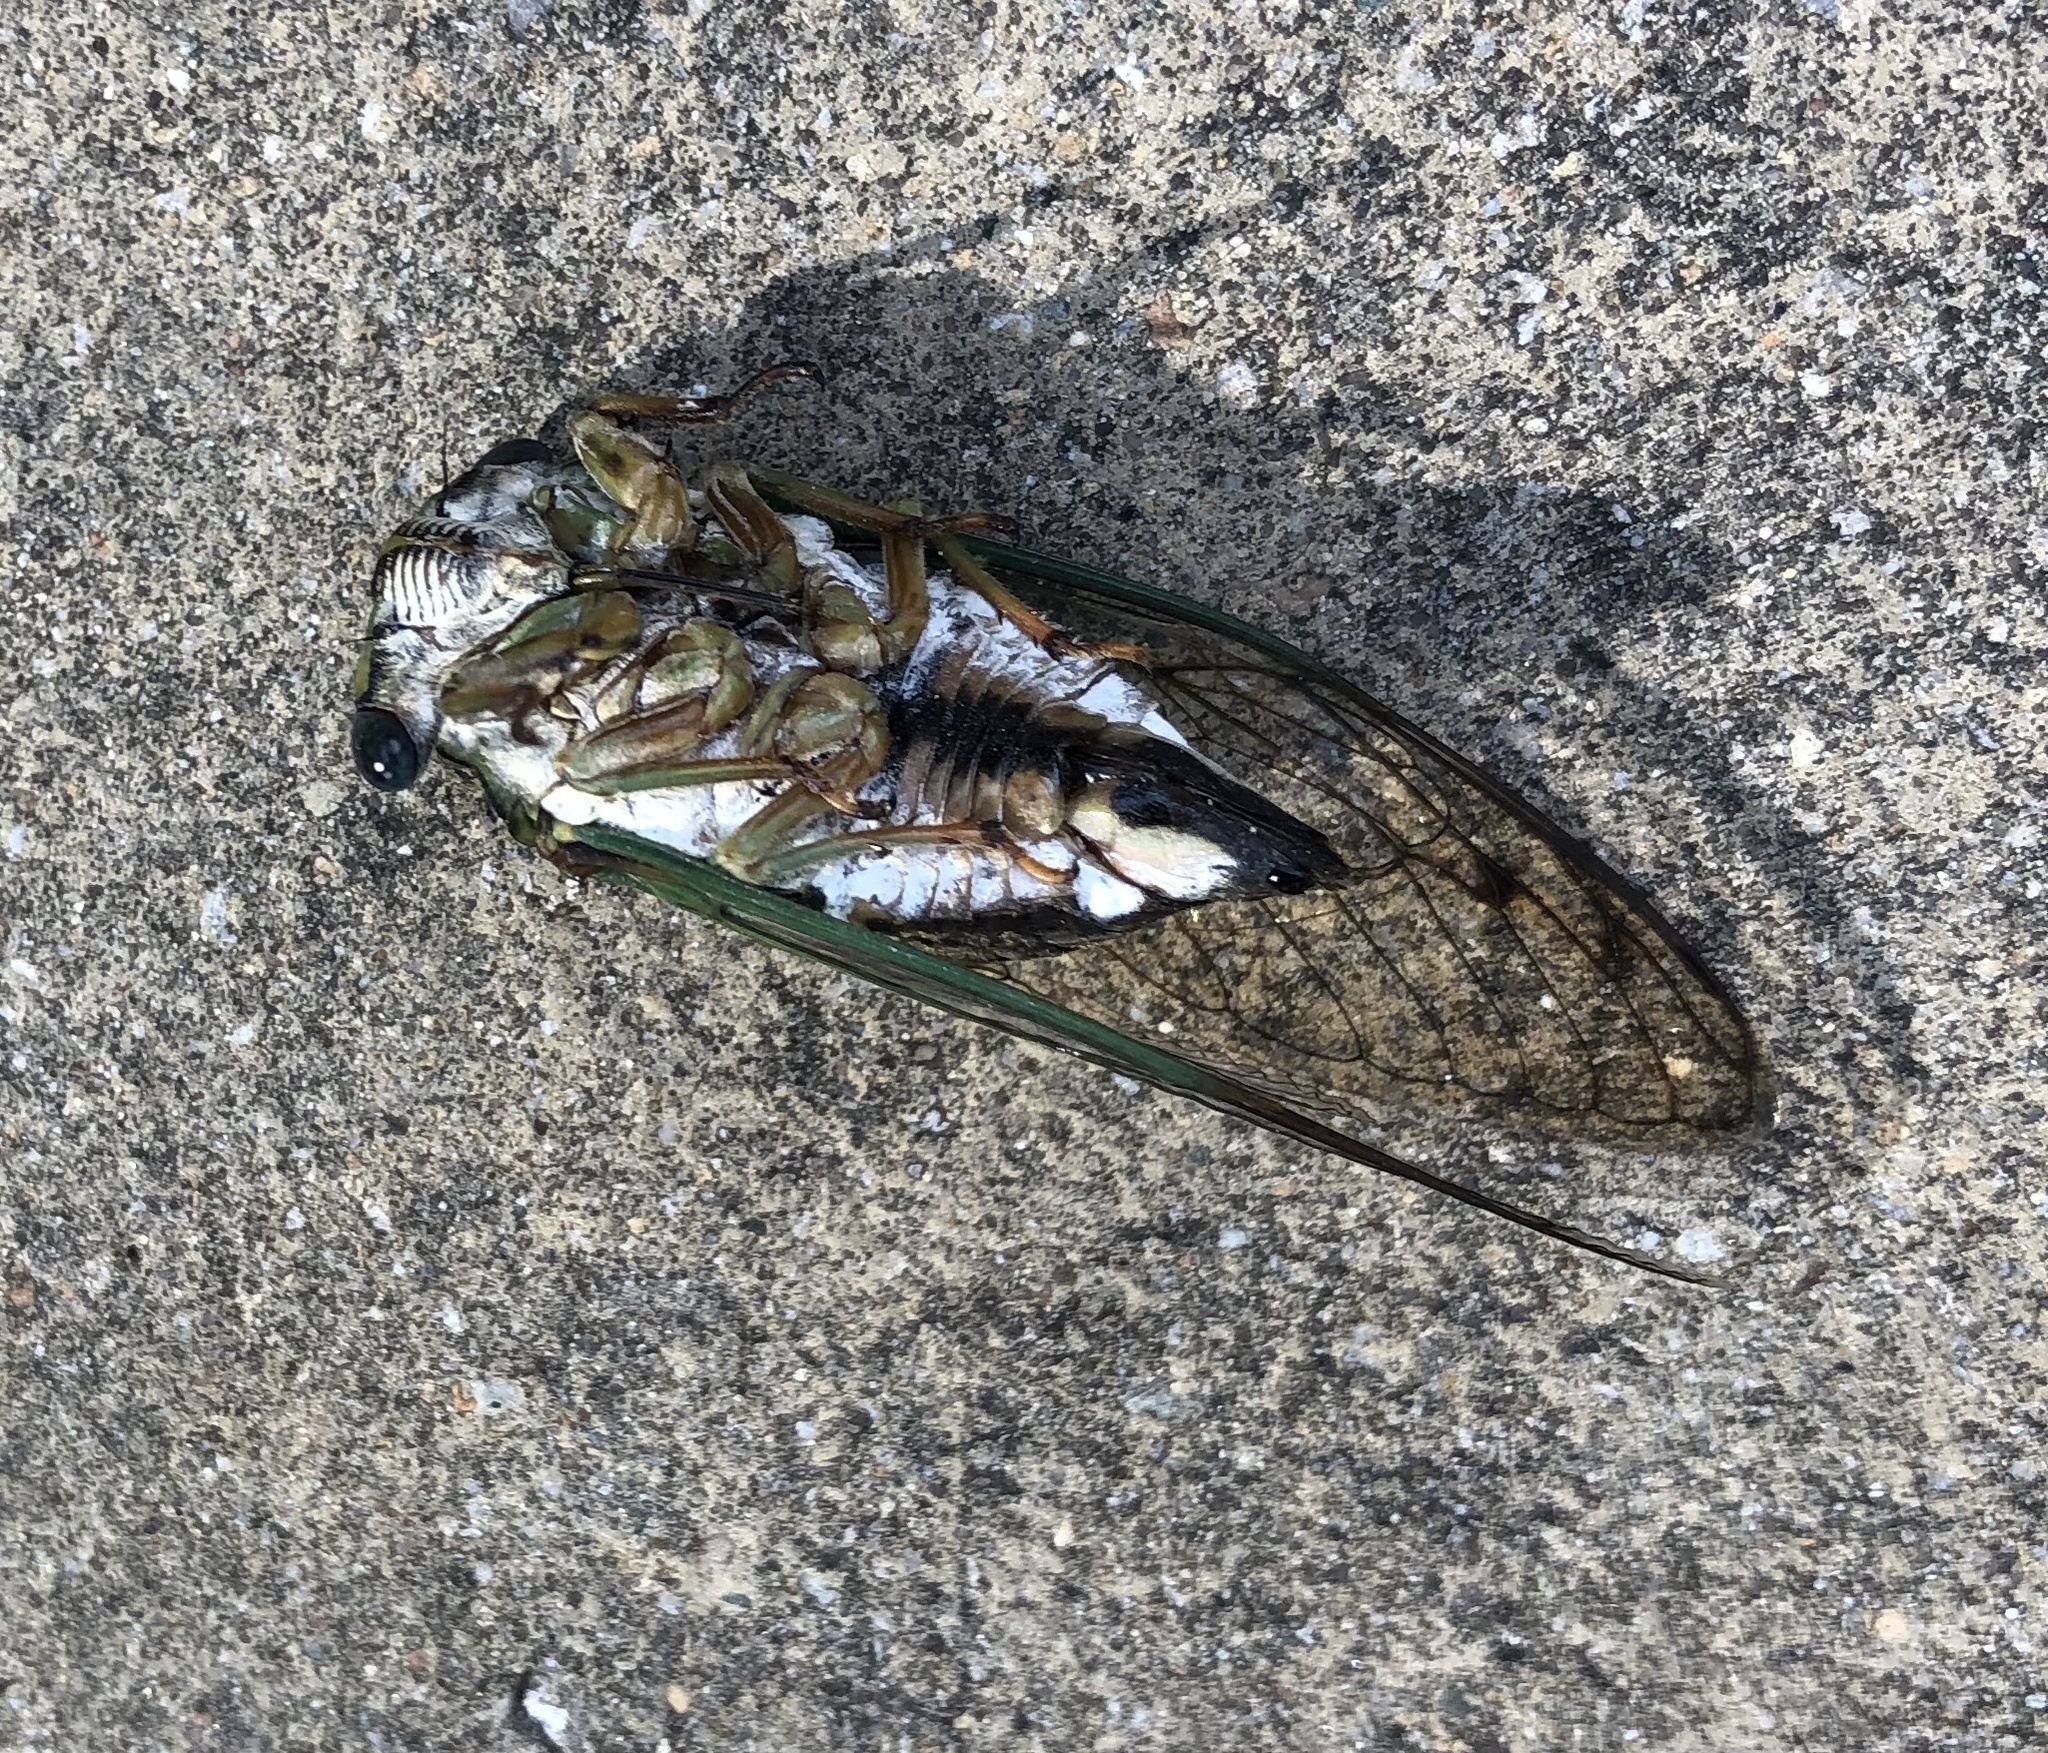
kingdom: Animalia
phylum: Arthropoda
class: Insecta
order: Hemiptera
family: Cicadidae
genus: Neotibicen
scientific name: Neotibicen pruinosus
